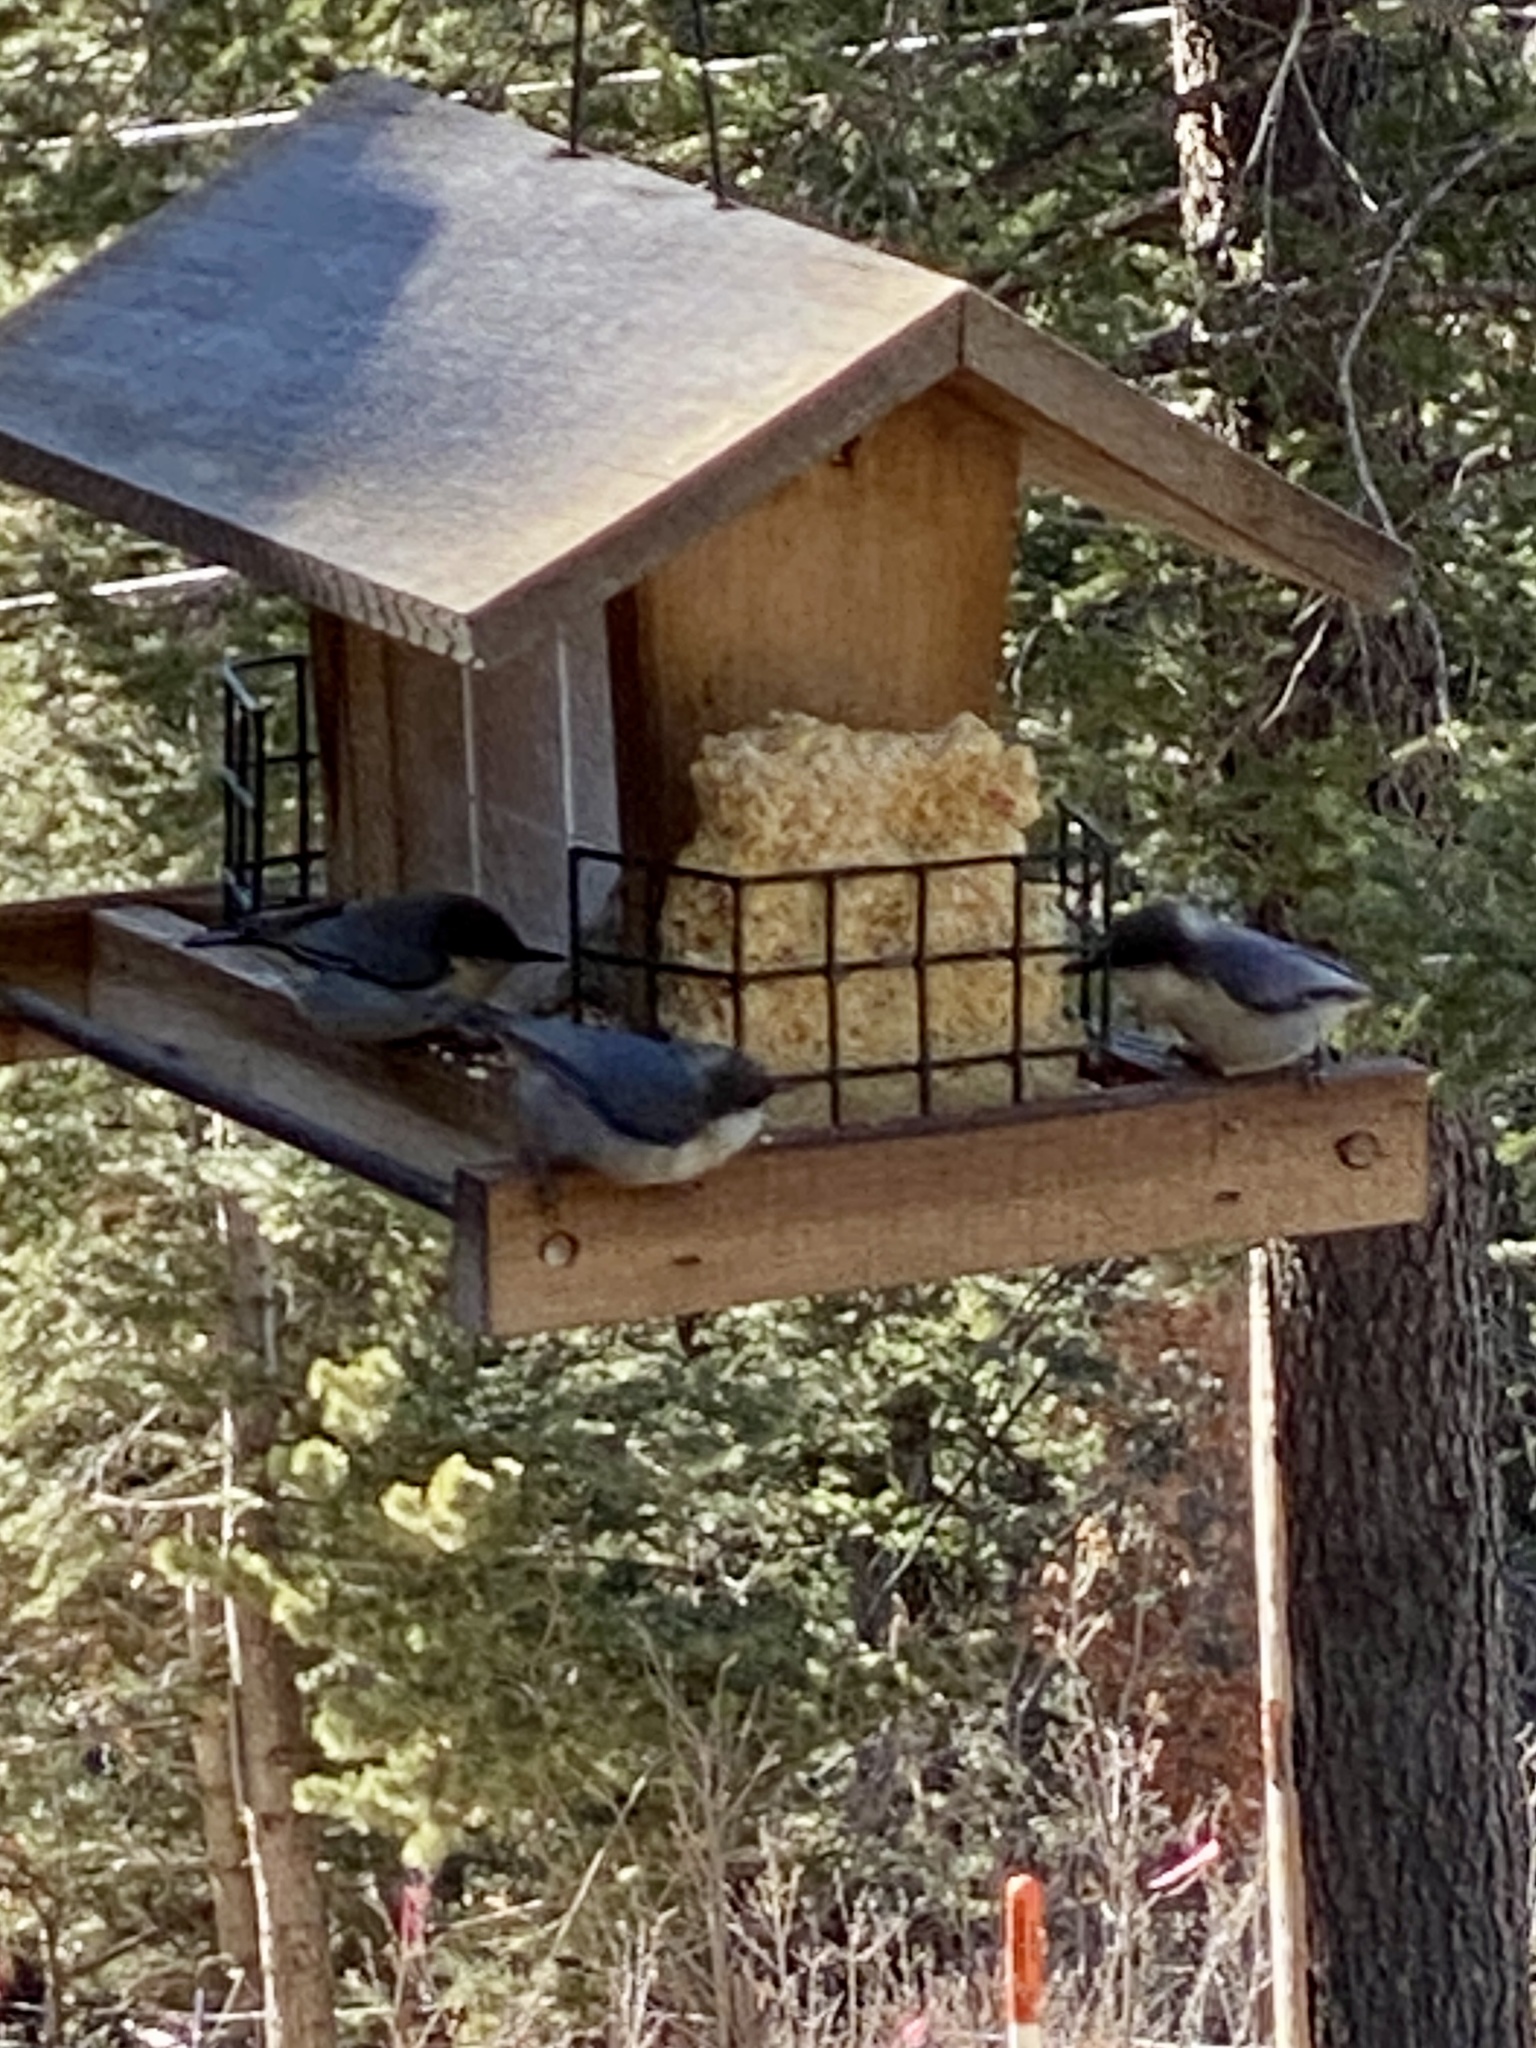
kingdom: Animalia
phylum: Chordata
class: Aves
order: Passeriformes
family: Sittidae
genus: Sitta
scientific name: Sitta pygmaea
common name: Pygmy nuthatch
